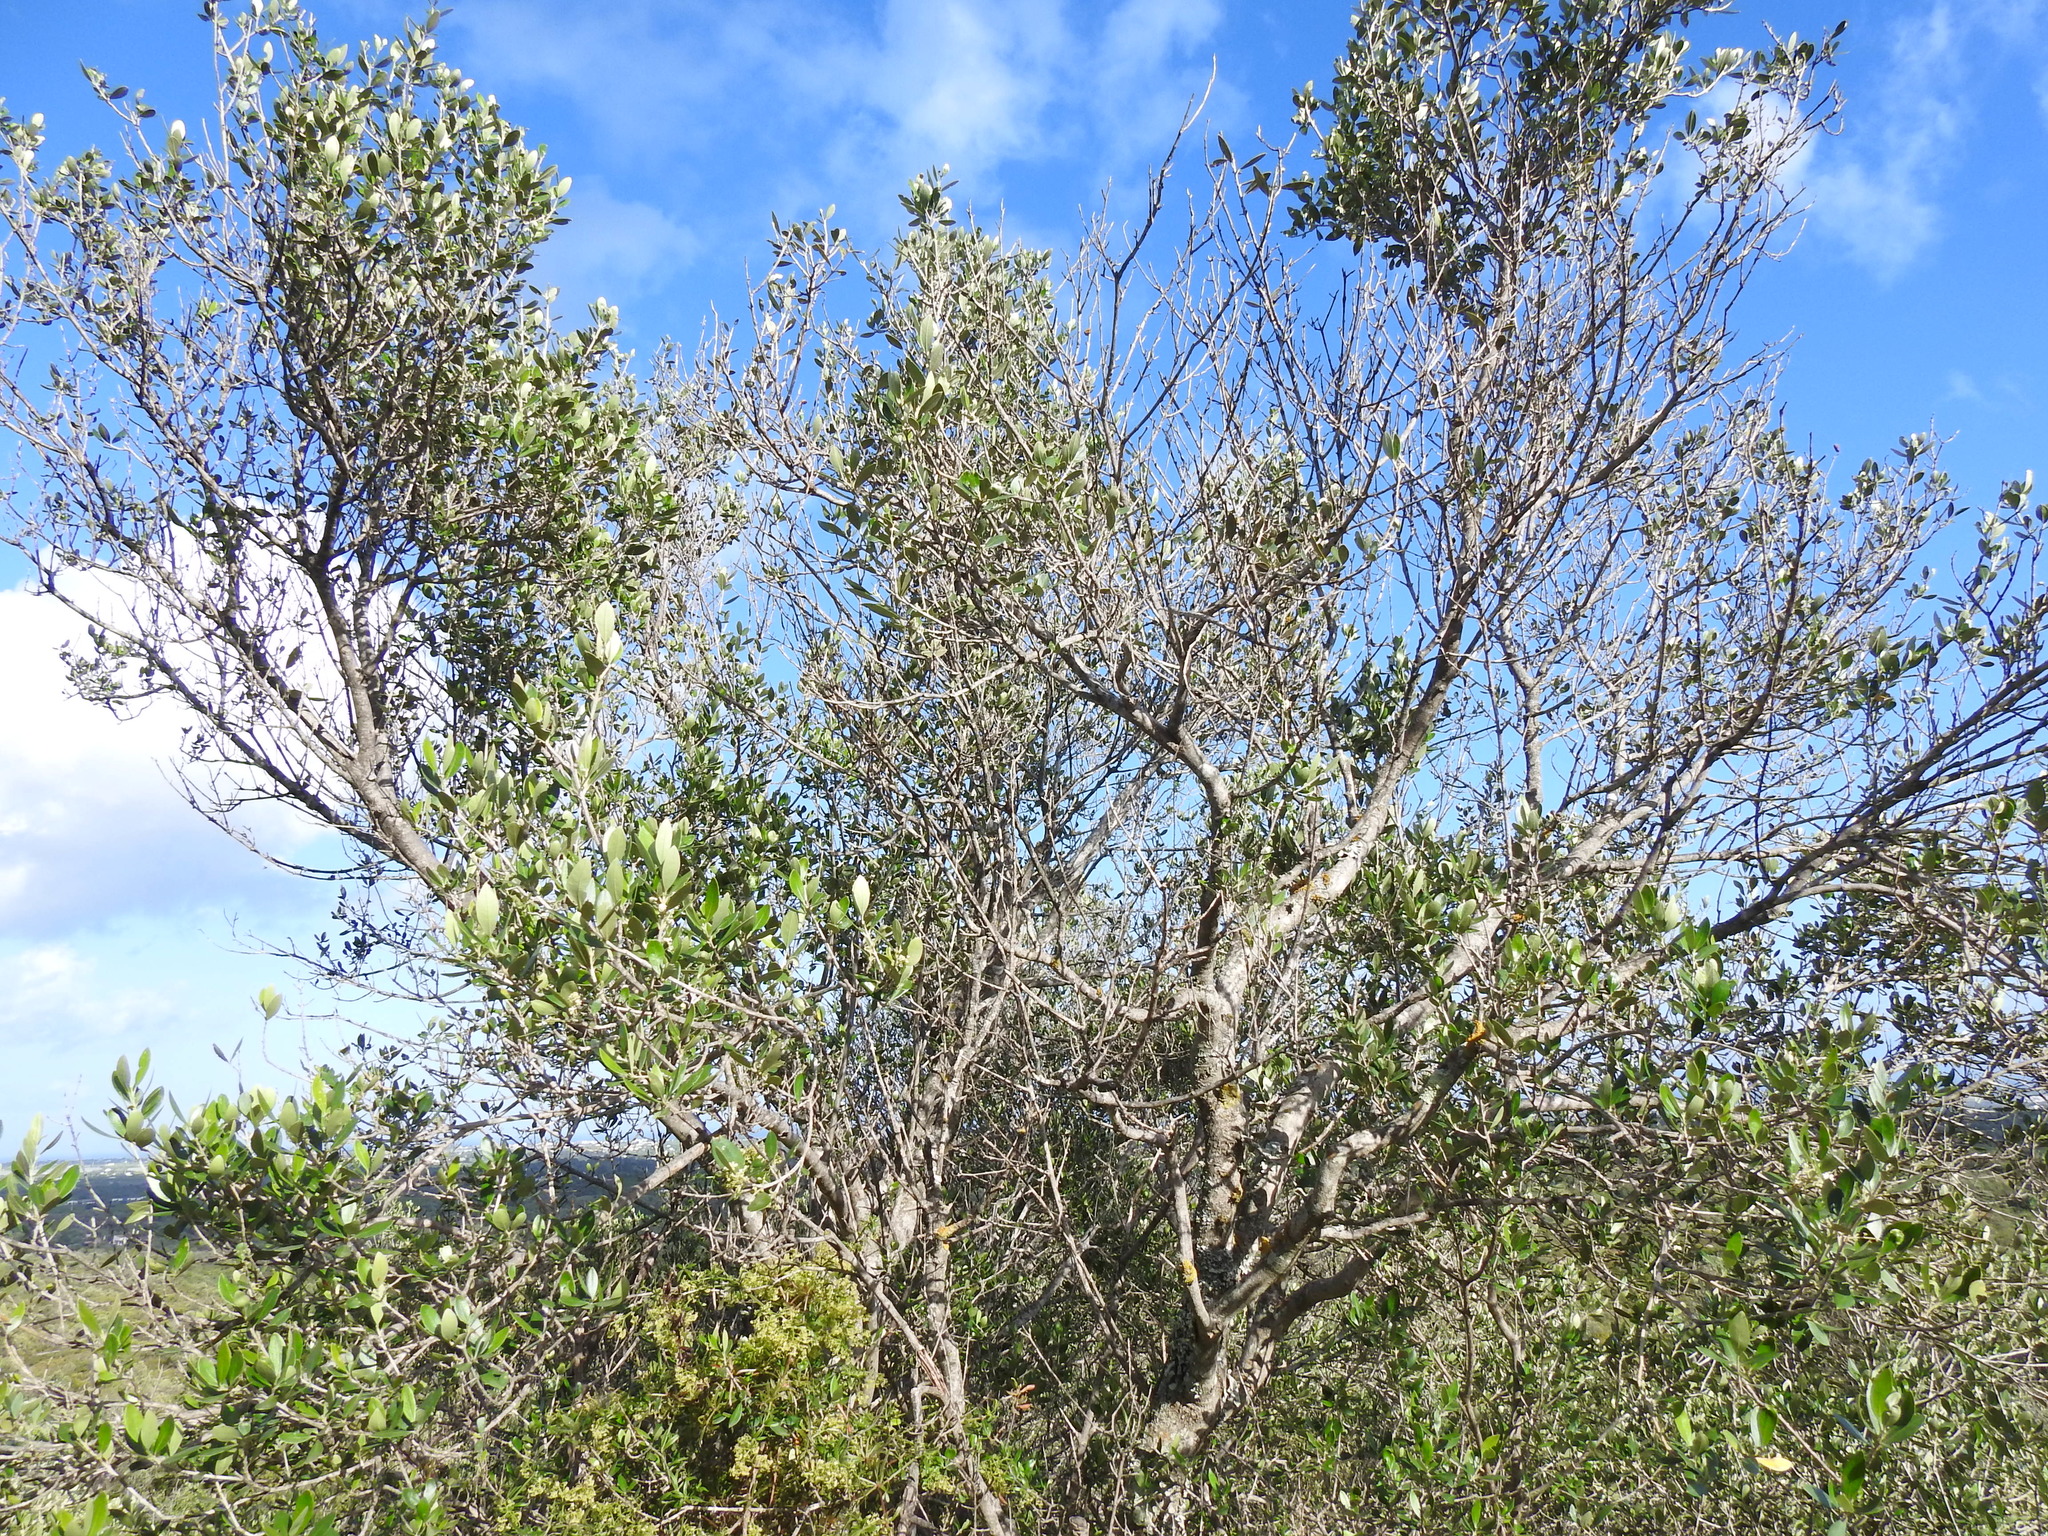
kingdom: Plantae
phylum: Tracheophyta
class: Magnoliopsida
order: Lamiales
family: Oleaceae
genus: Olea
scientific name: Olea europaea
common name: Olive
